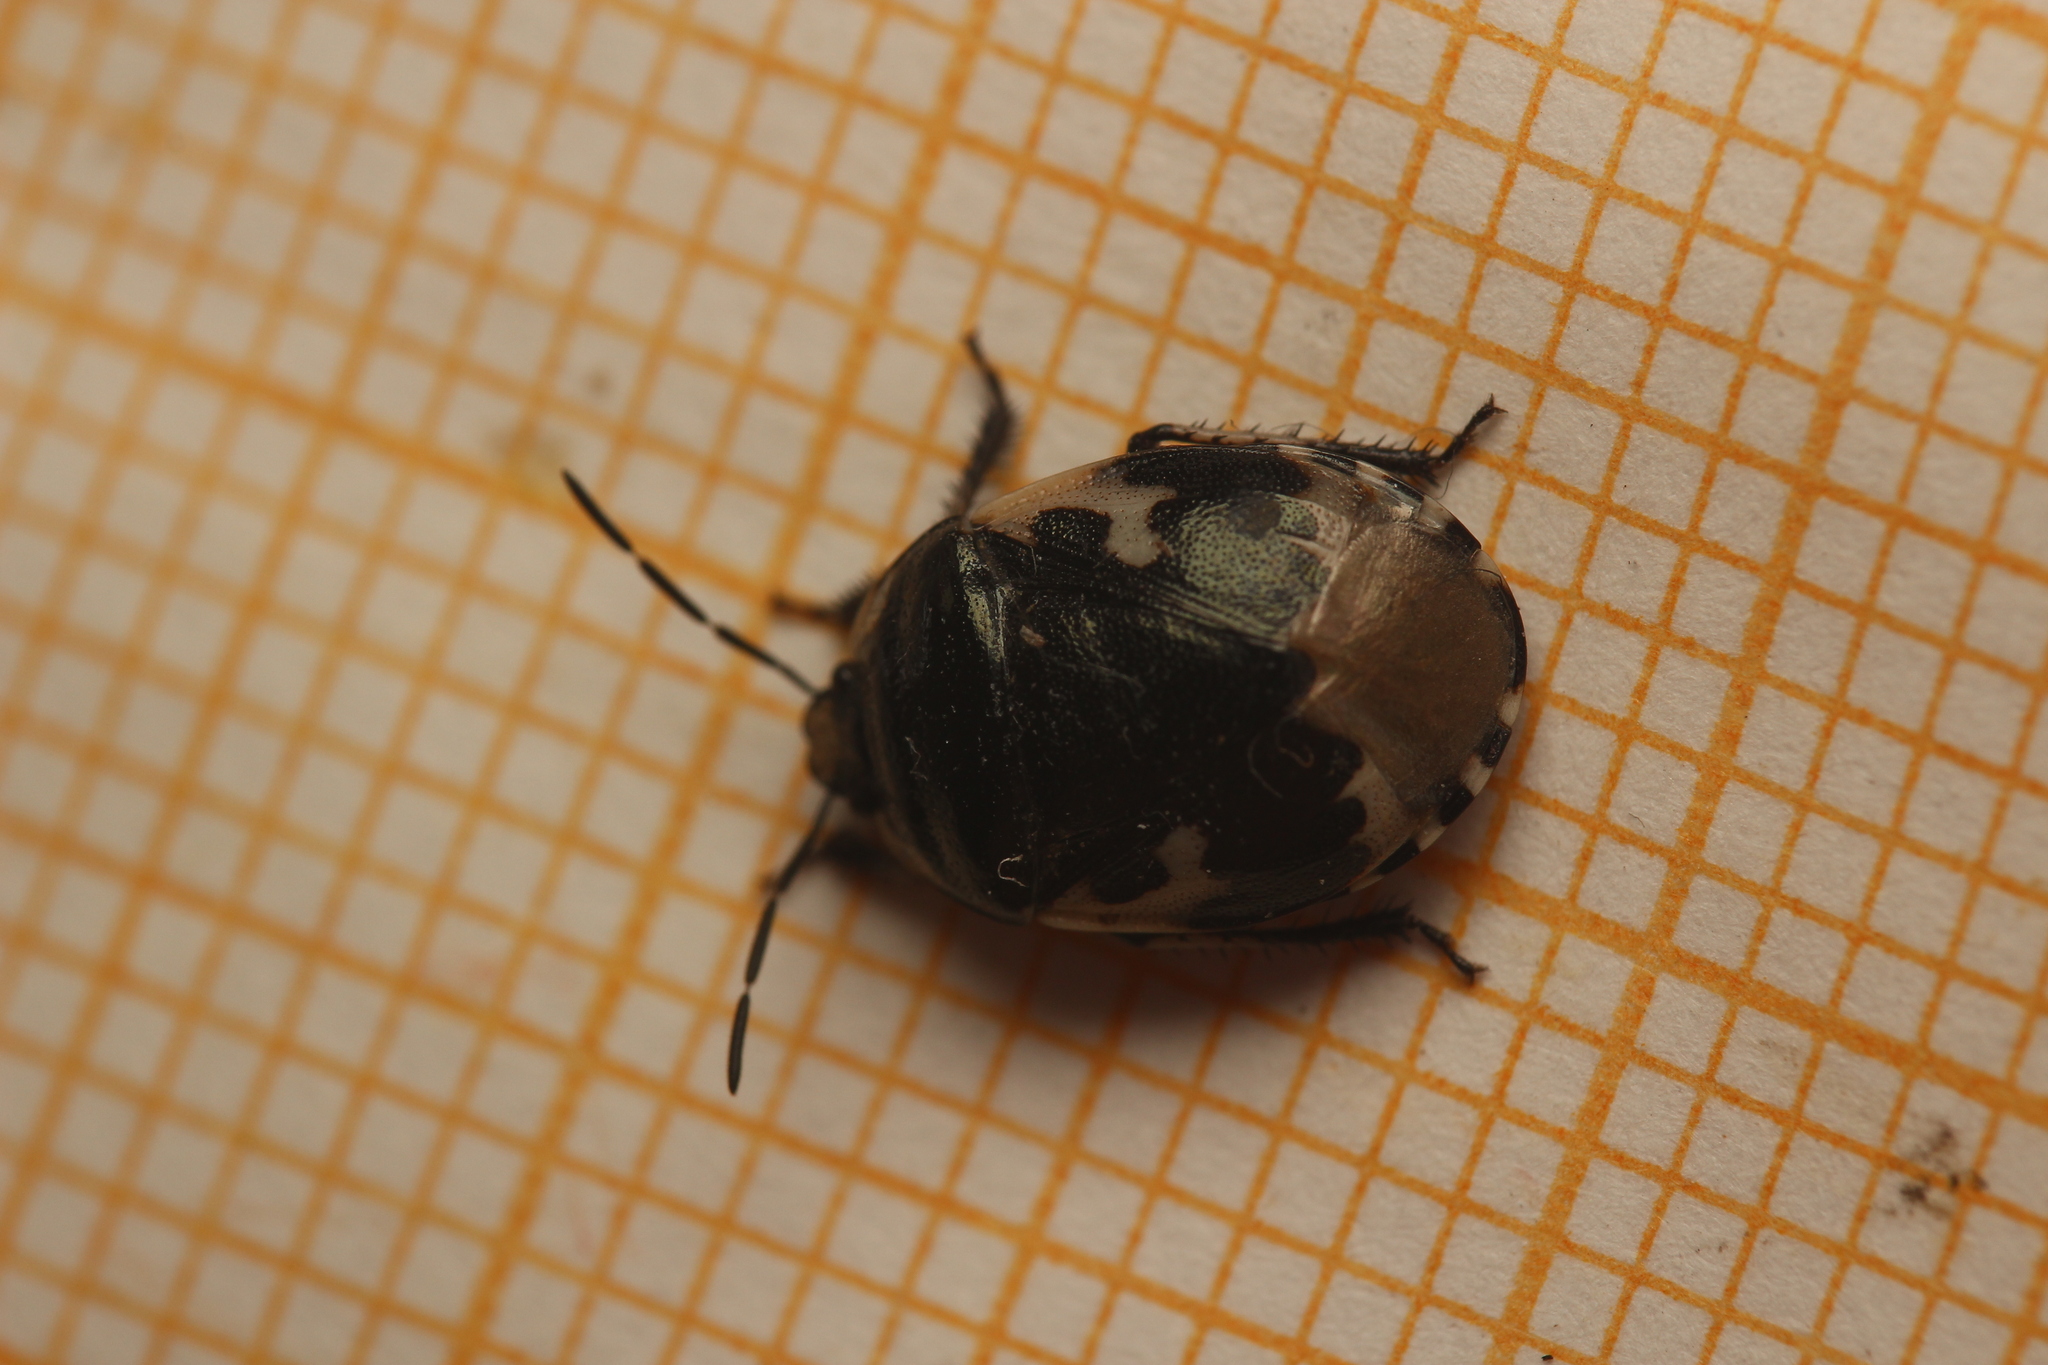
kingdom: Animalia
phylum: Arthropoda
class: Insecta
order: Hemiptera
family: Cydnidae
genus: Tritomegas
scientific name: Tritomegas bicolor
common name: Pied shieldbug
